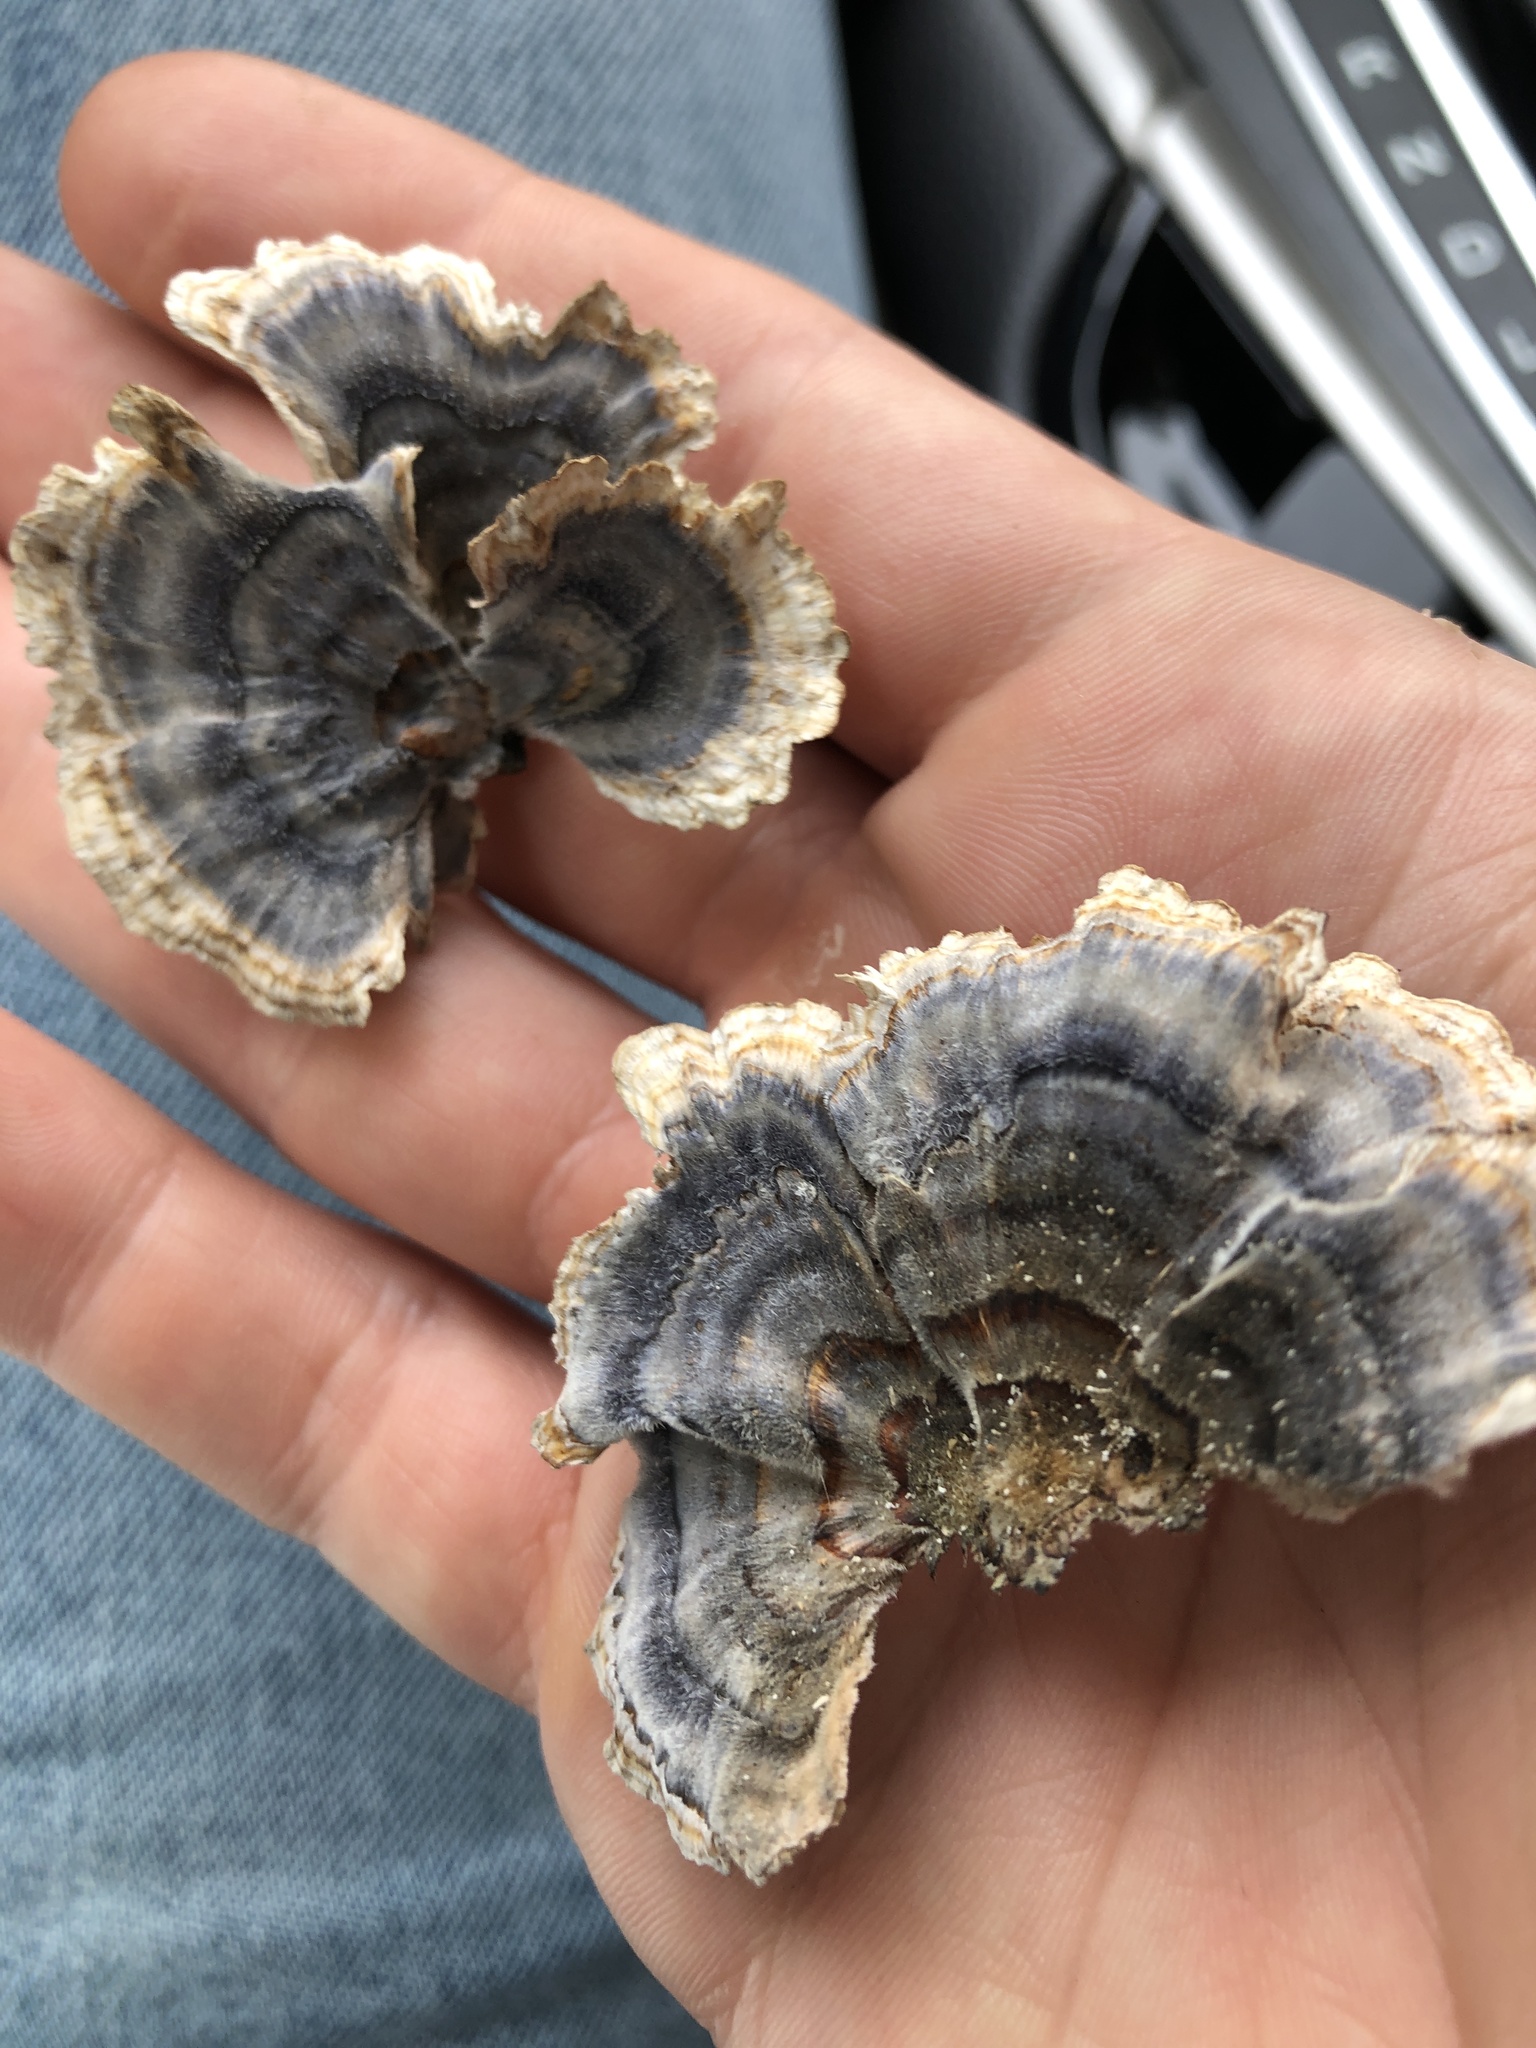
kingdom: Fungi
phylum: Basidiomycota
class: Agaricomycetes
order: Polyporales
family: Polyporaceae
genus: Trametes
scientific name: Trametes versicolor
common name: Turkeytail
